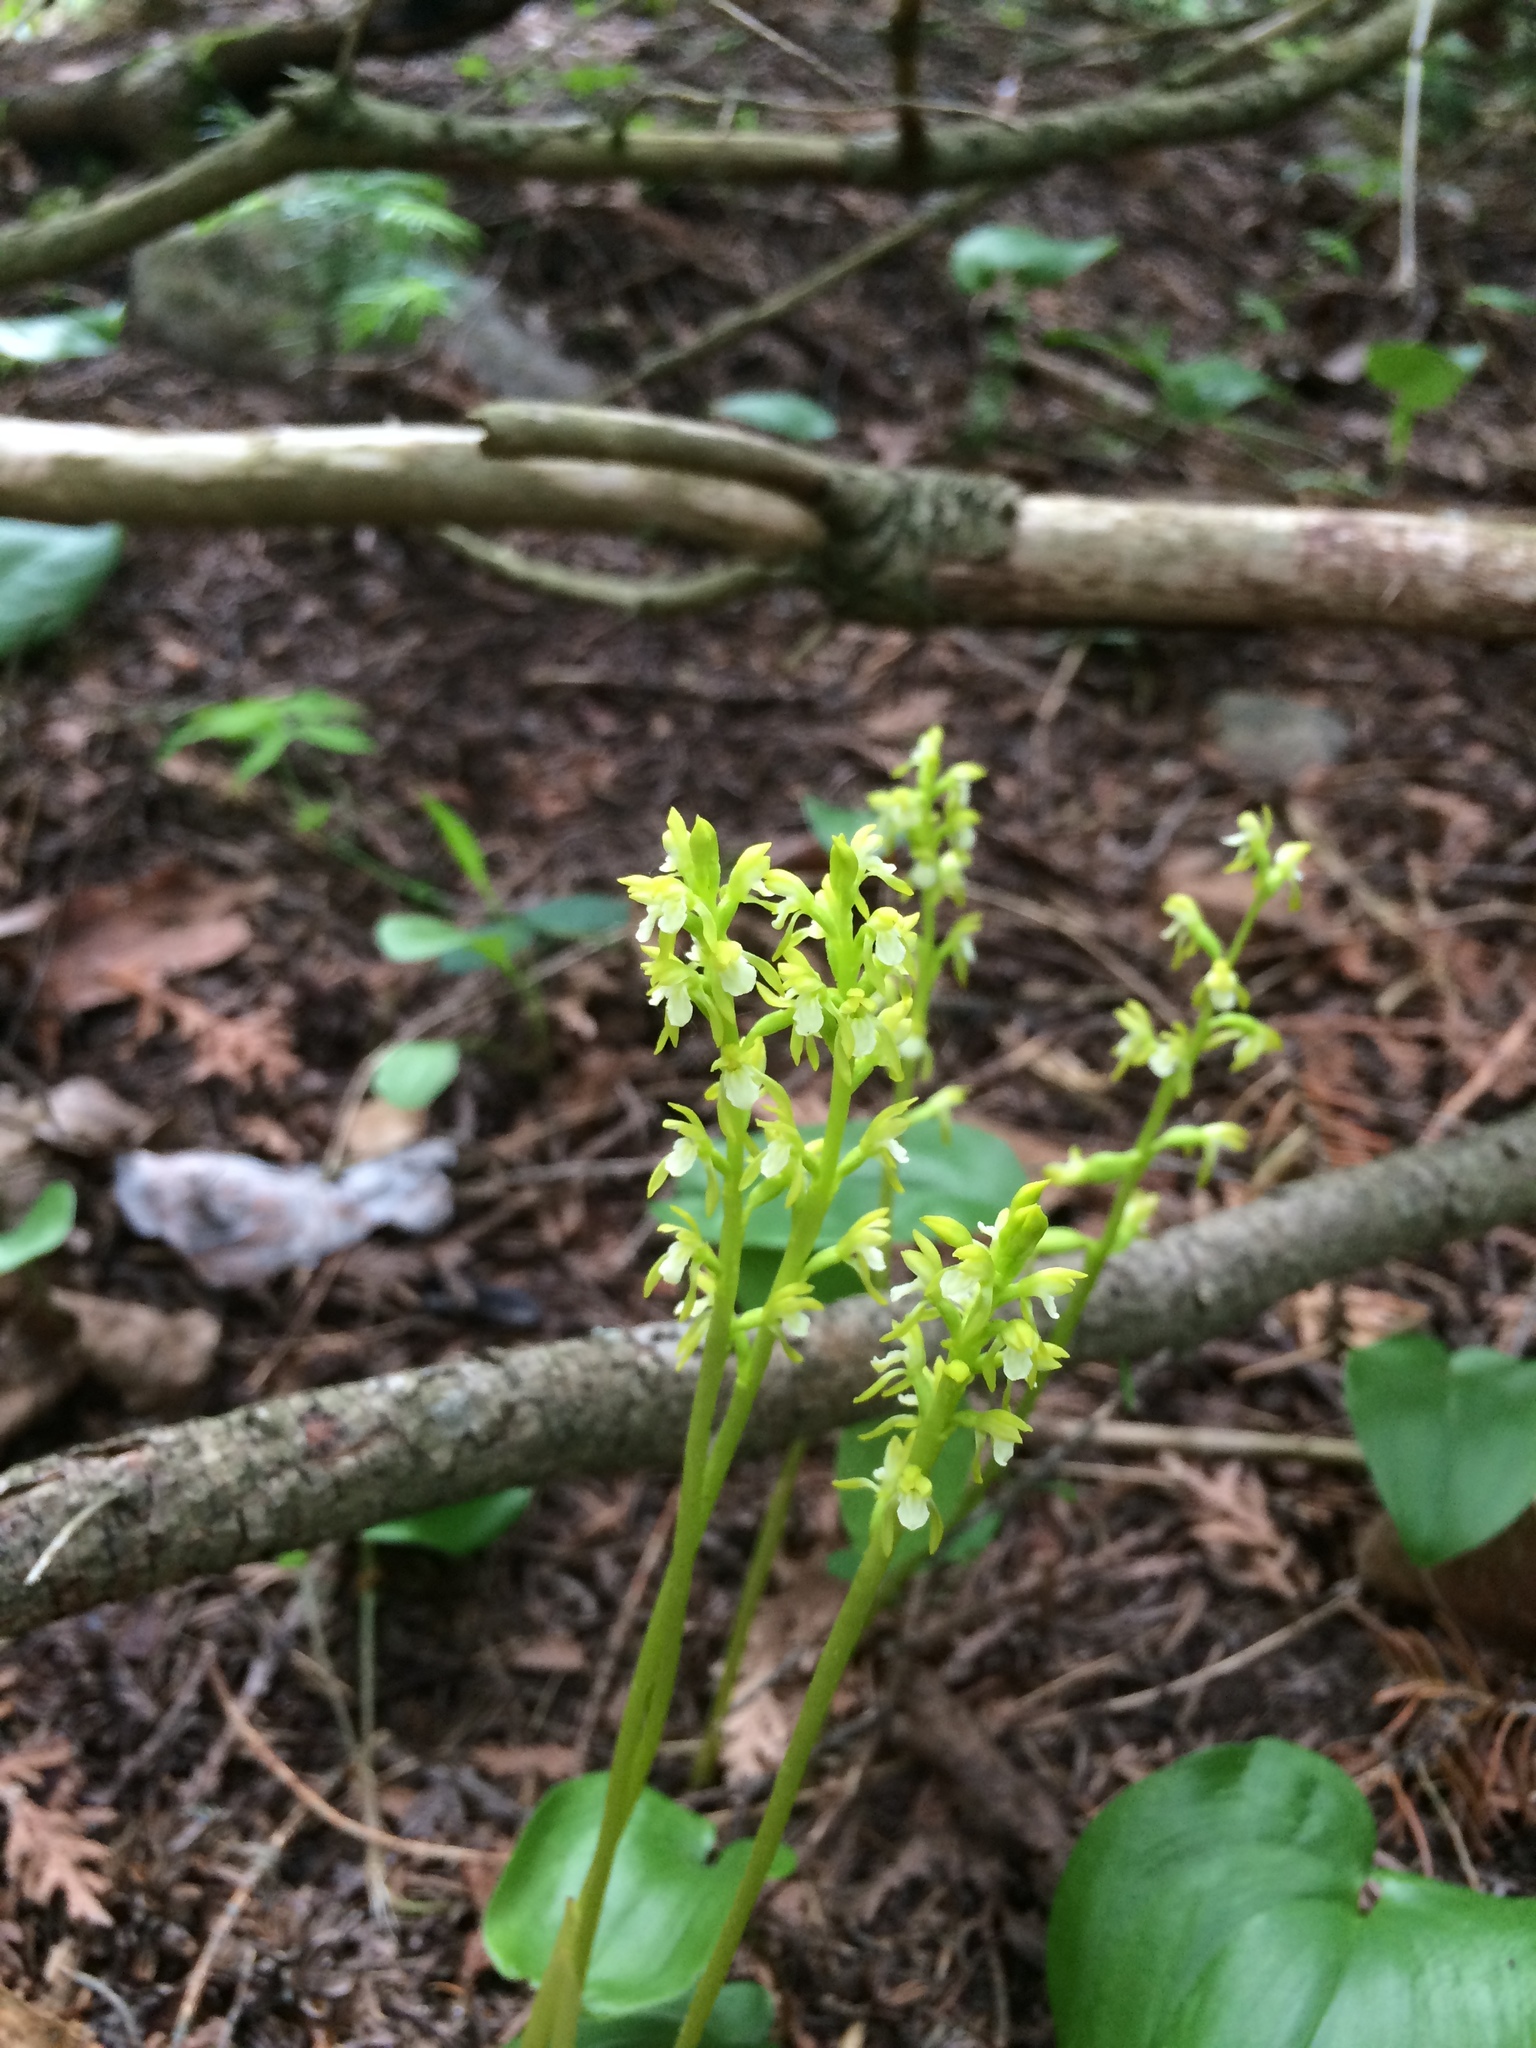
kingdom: Plantae
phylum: Tracheophyta
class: Liliopsida
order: Asparagales
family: Orchidaceae
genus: Corallorhiza
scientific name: Corallorhiza trifida
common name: Yellow coralroot
